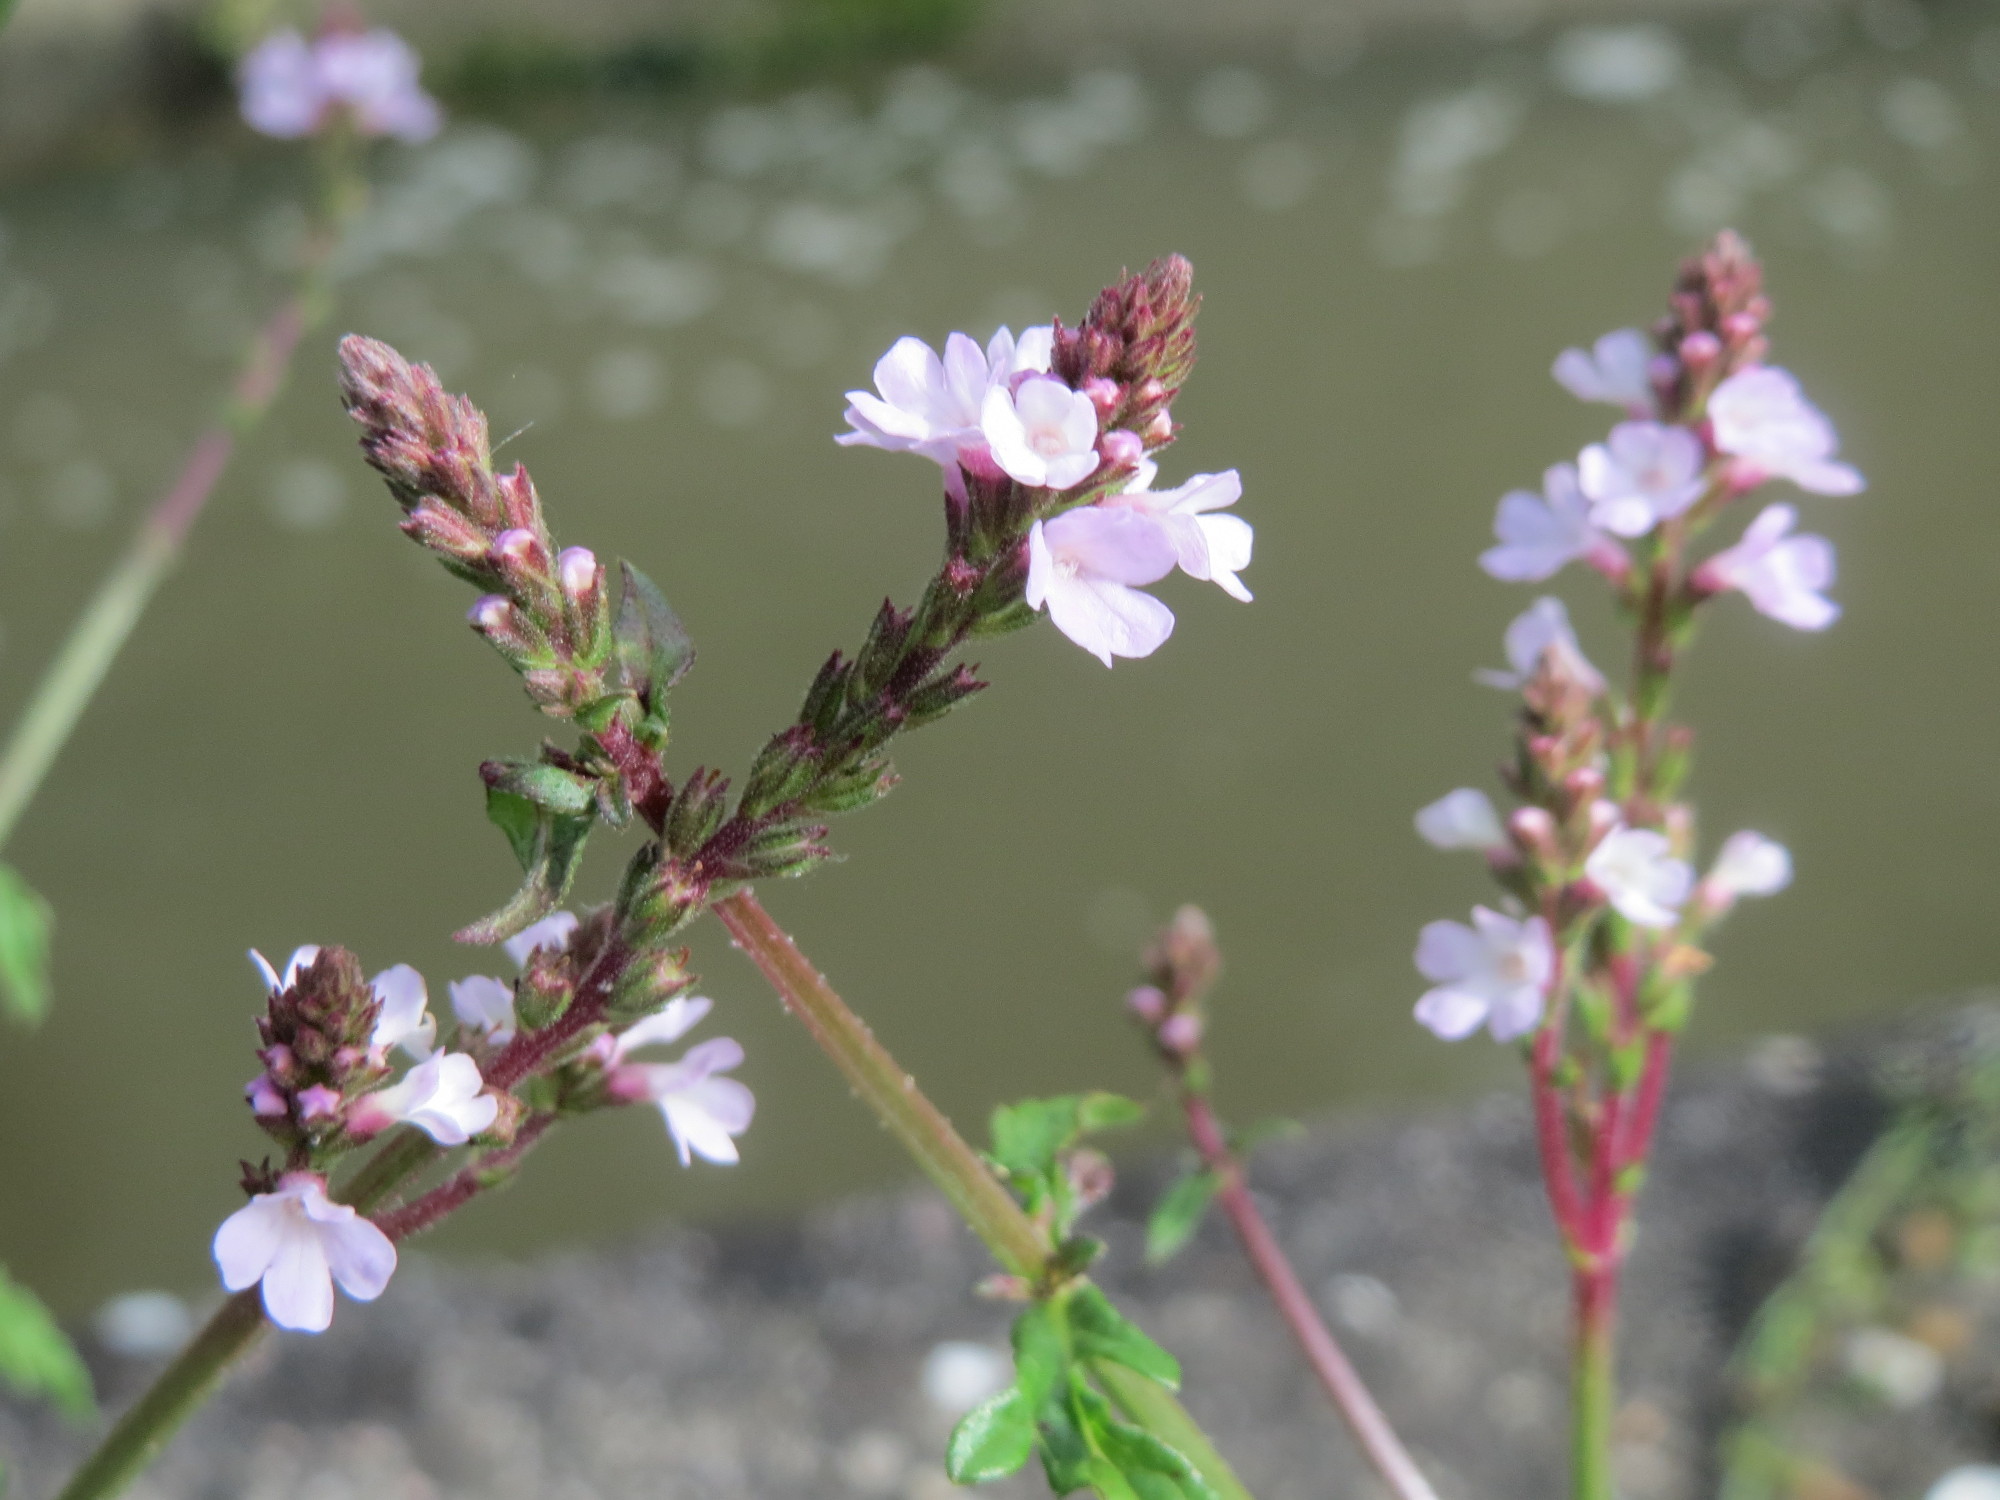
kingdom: Plantae
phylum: Tracheophyta
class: Magnoliopsida
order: Lamiales
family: Verbenaceae
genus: Verbena
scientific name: Verbena officinalis
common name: Vervain
